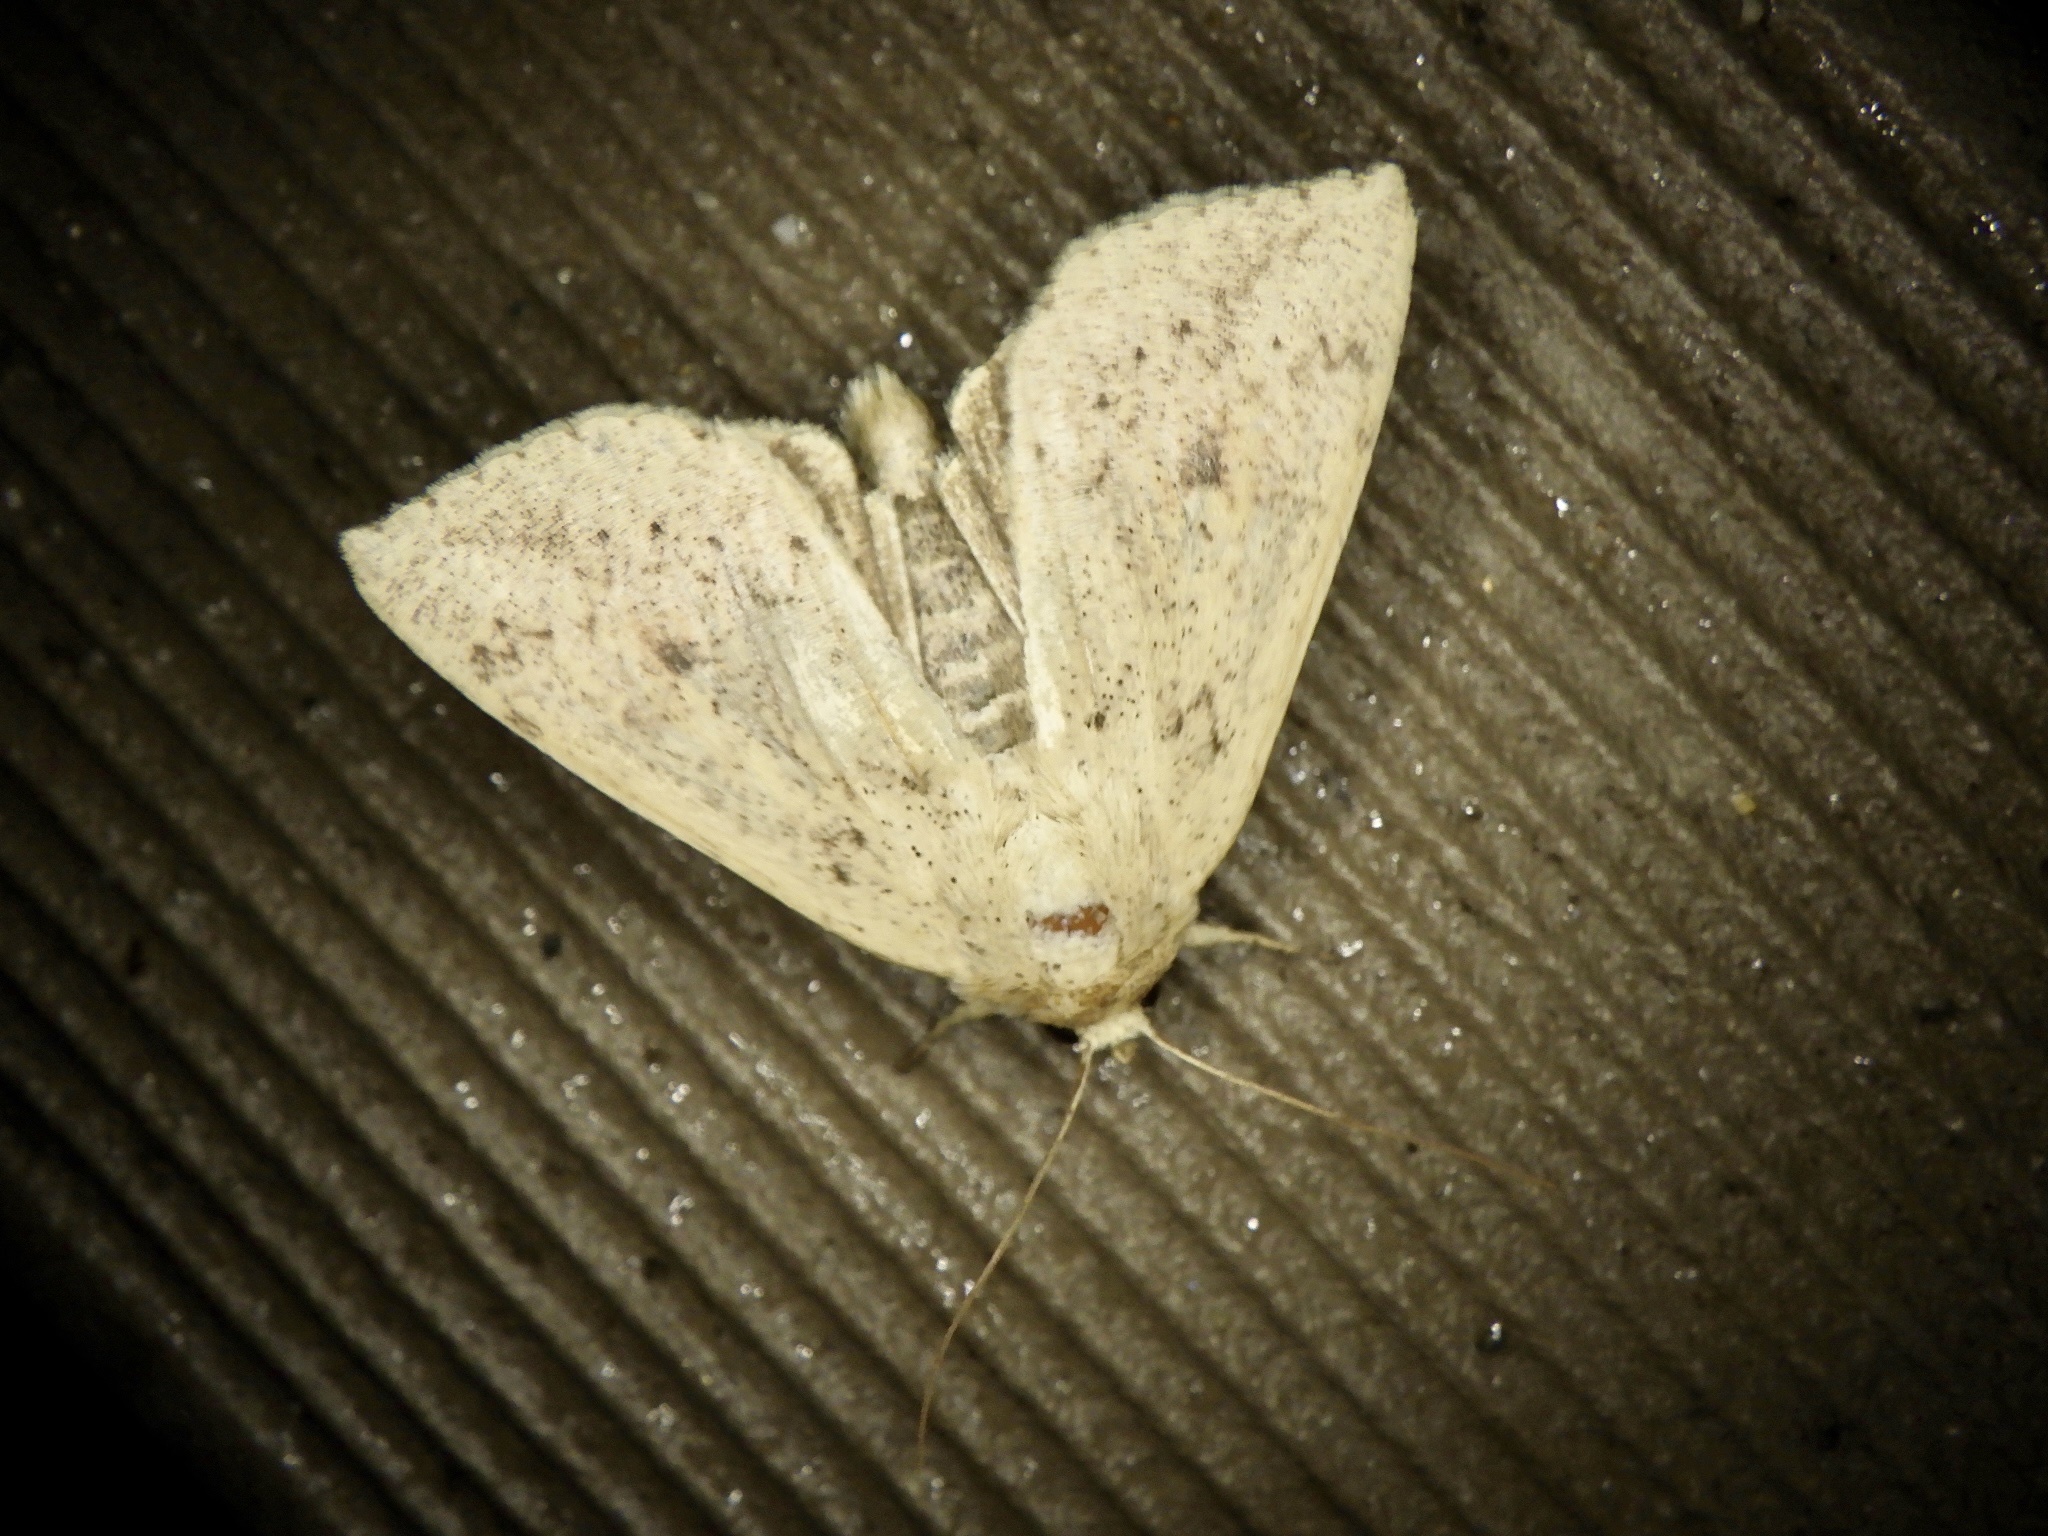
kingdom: Animalia
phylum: Arthropoda
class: Insecta
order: Lepidoptera
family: Noctuidae
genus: Mythimna
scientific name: Mythimna flavostigma
